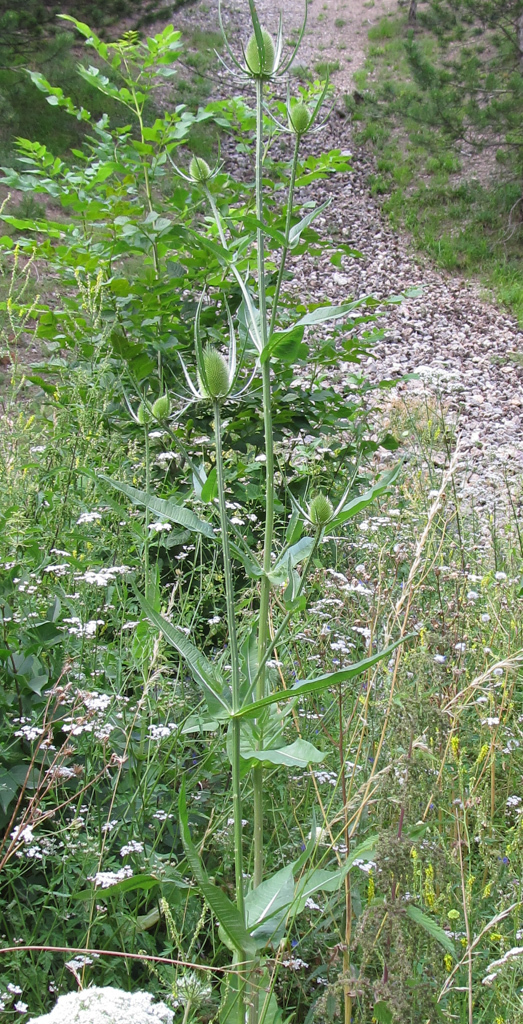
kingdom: Plantae
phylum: Tracheophyta
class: Magnoliopsida
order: Dipsacales
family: Caprifoliaceae
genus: Dipsacus
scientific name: Dipsacus fullonum
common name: Teasel
